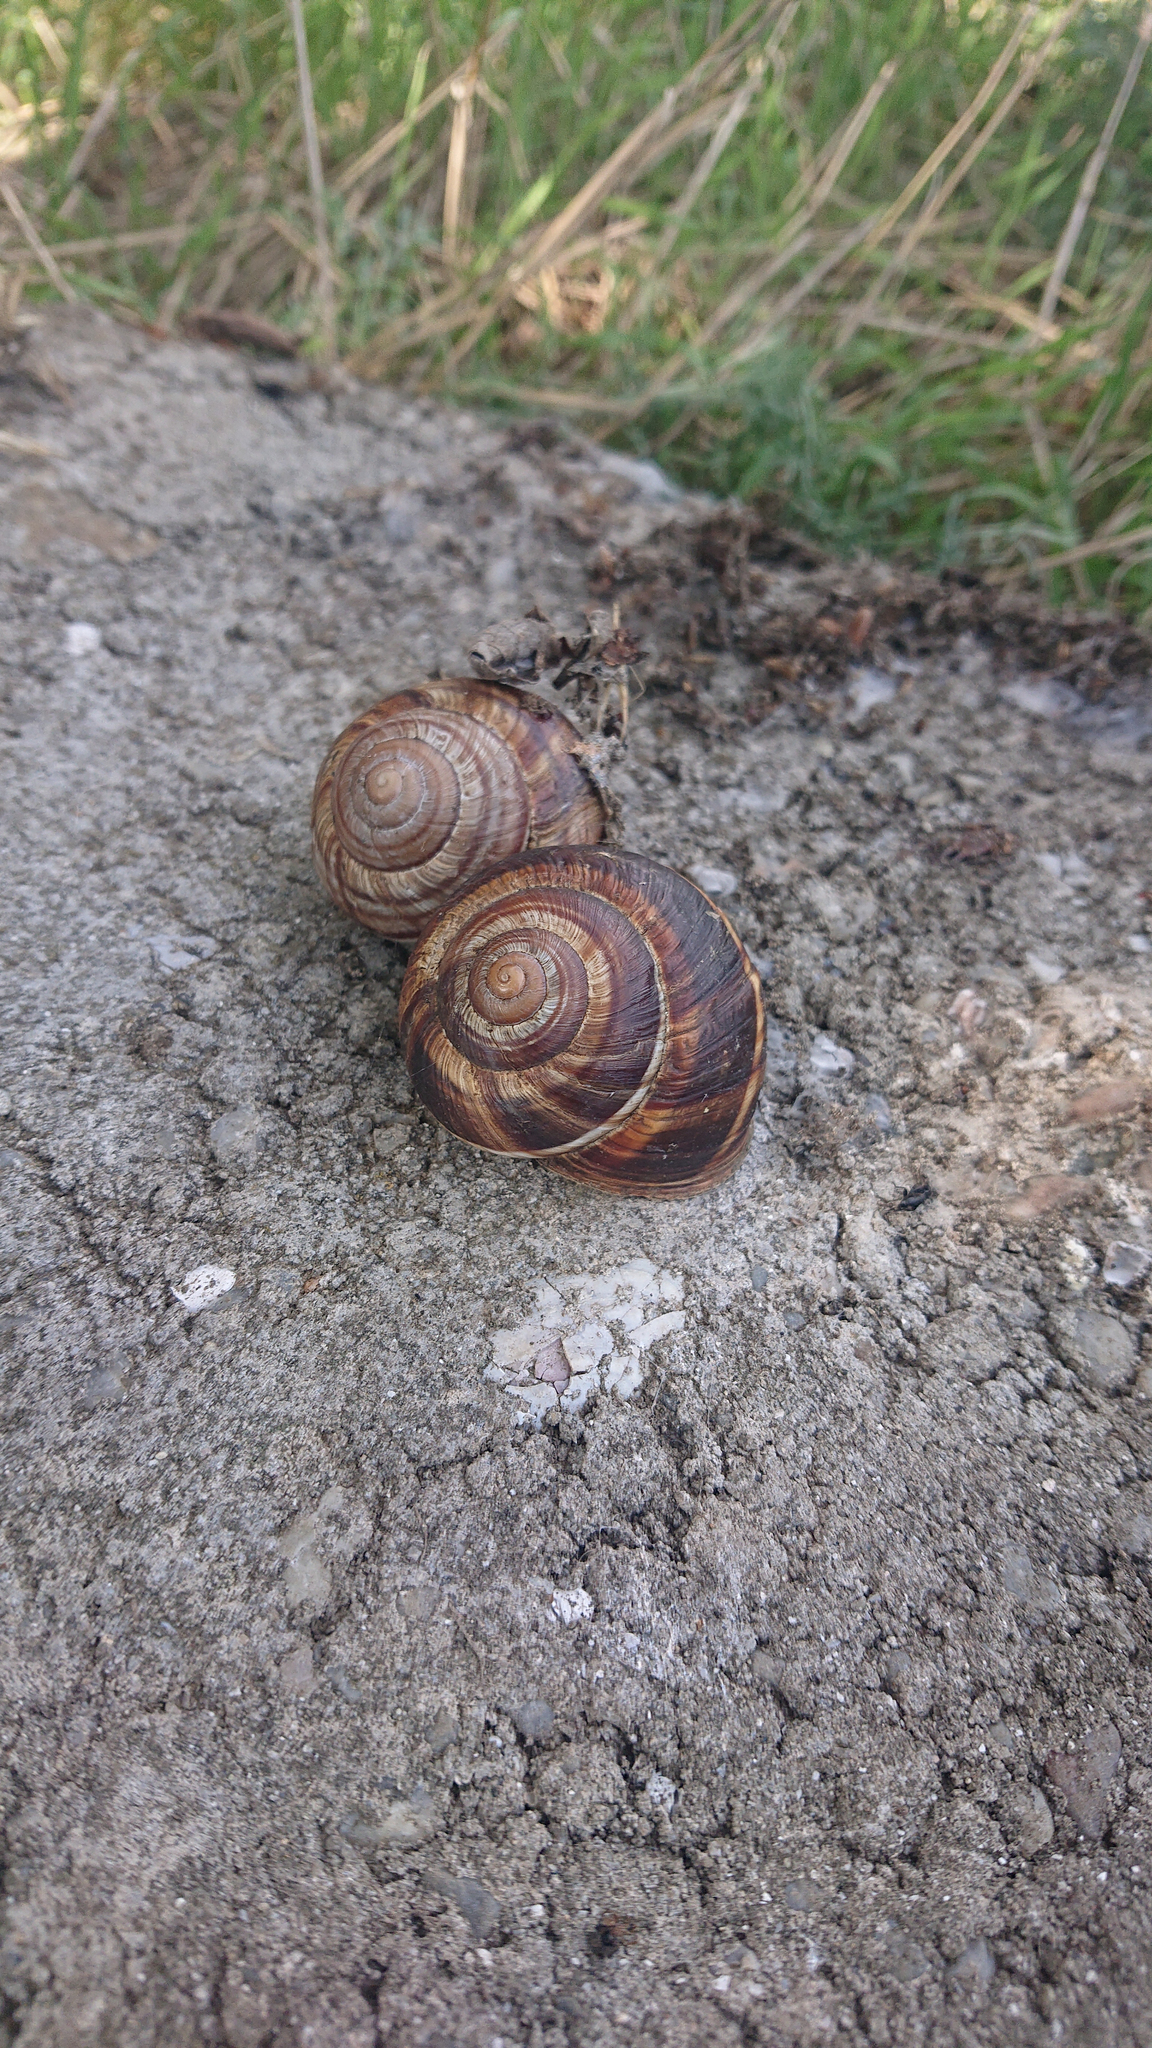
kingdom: Animalia
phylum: Mollusca
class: Gastropoda
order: Stylommatophora
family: Helicidae
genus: Helix
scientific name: Helix lucorum
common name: Turkish snail
